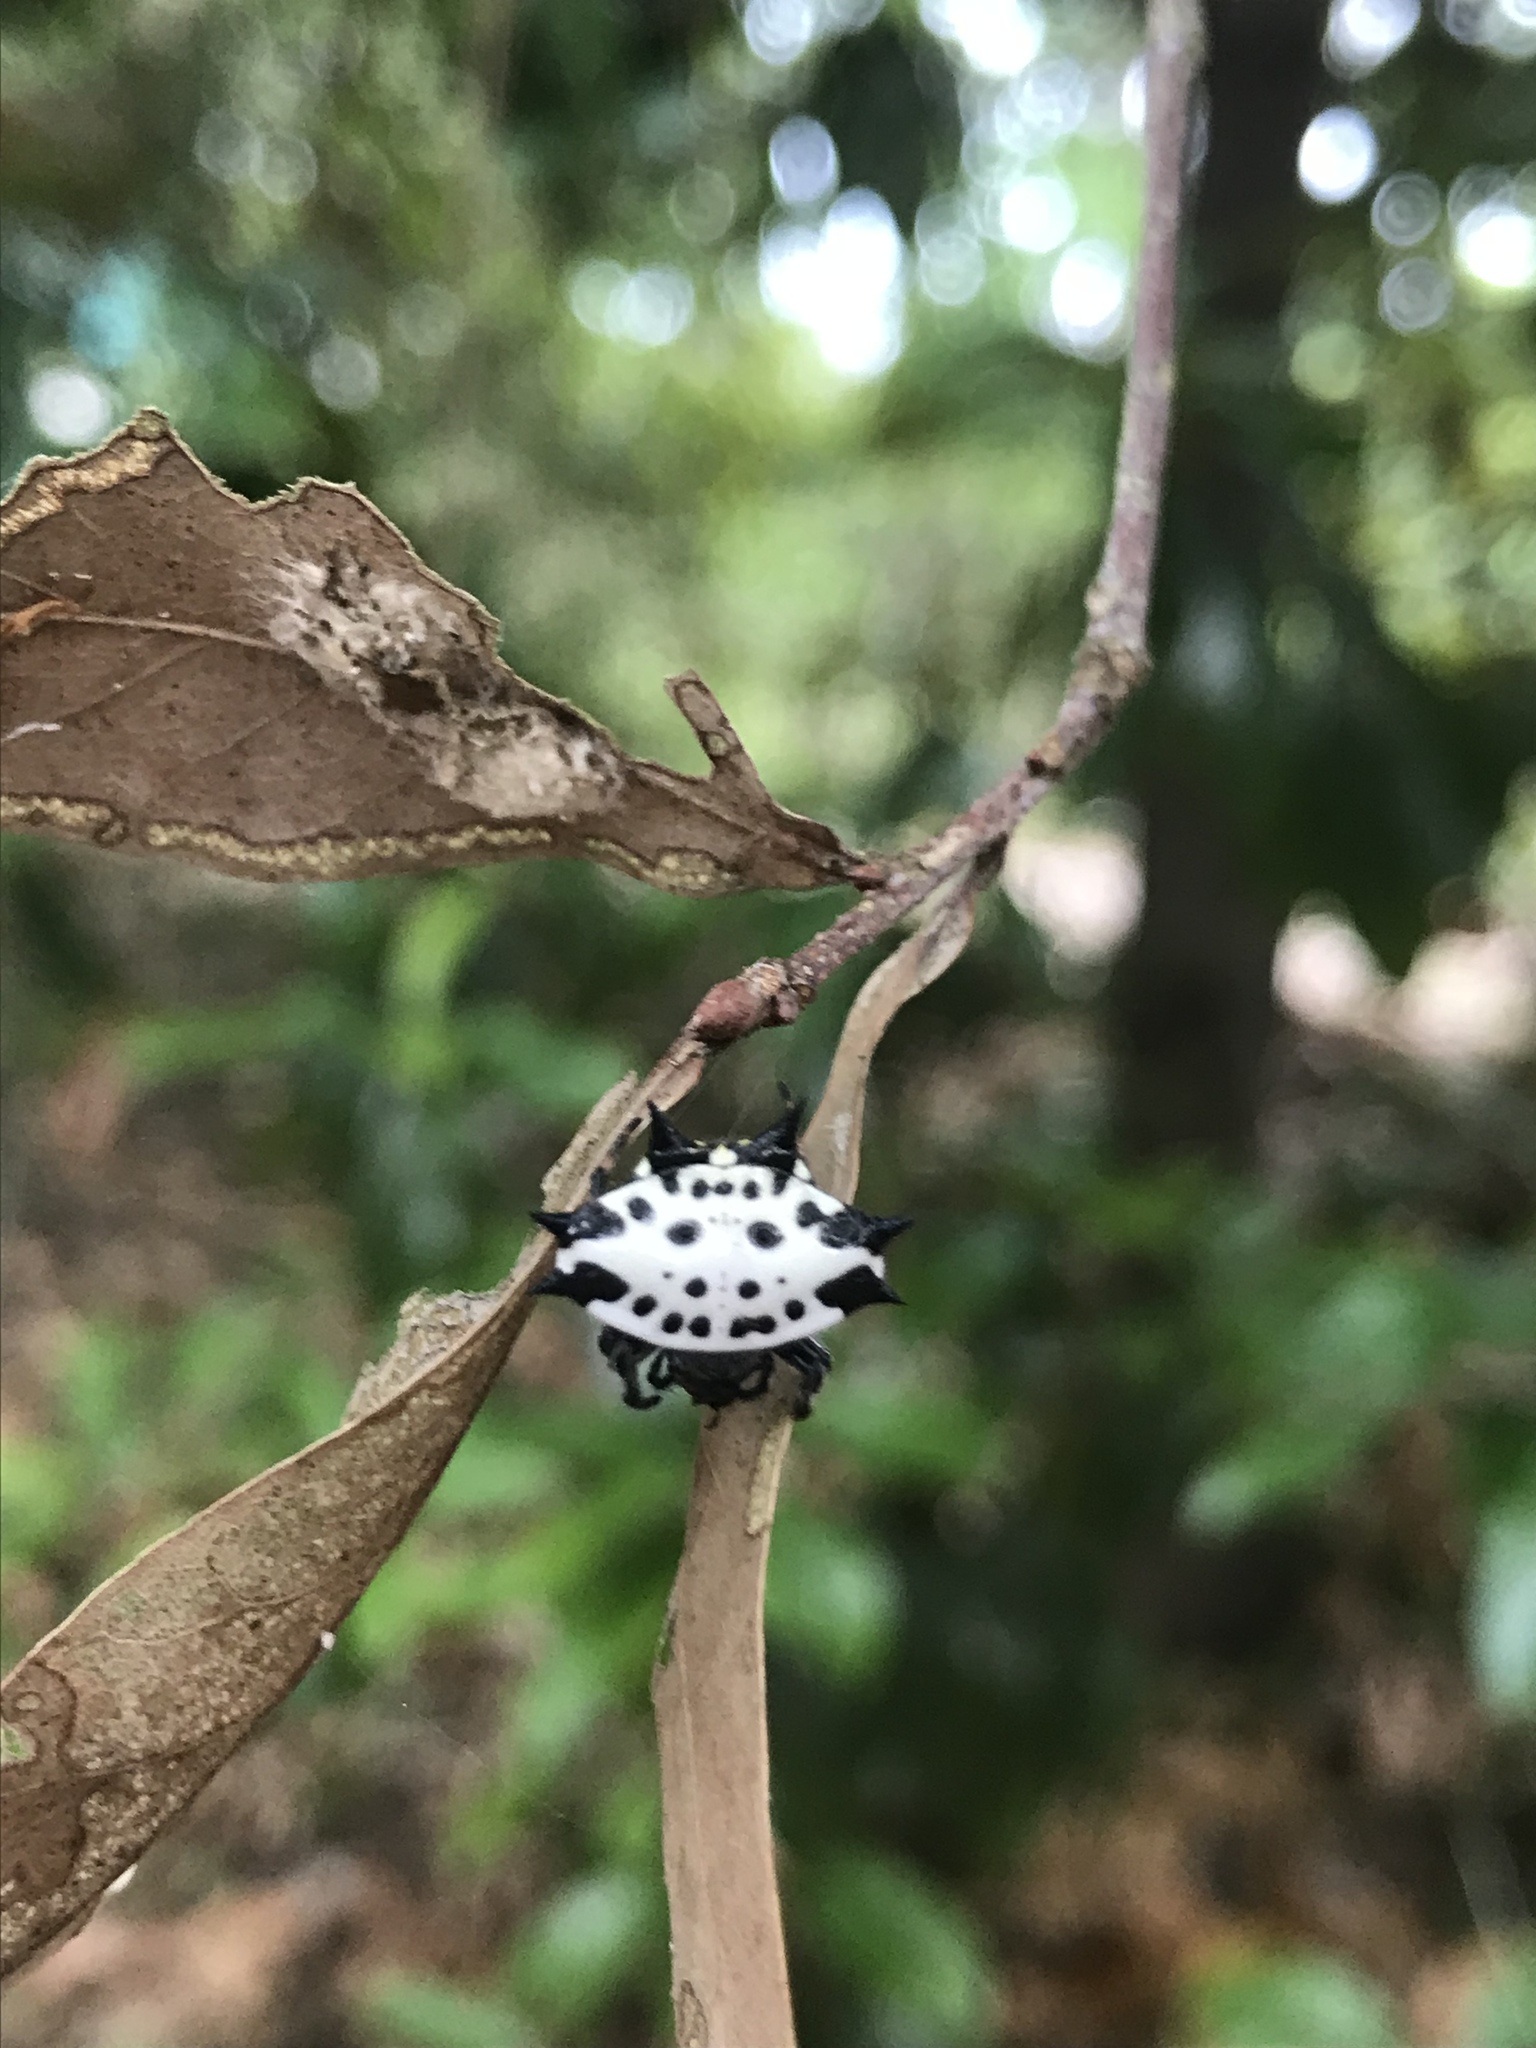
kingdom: Animalia
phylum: Arthropoda
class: Arachnida
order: Araneae
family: Araneidae
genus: Gasteracantha
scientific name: Gasteracantha cancriformis
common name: Orb weavers
